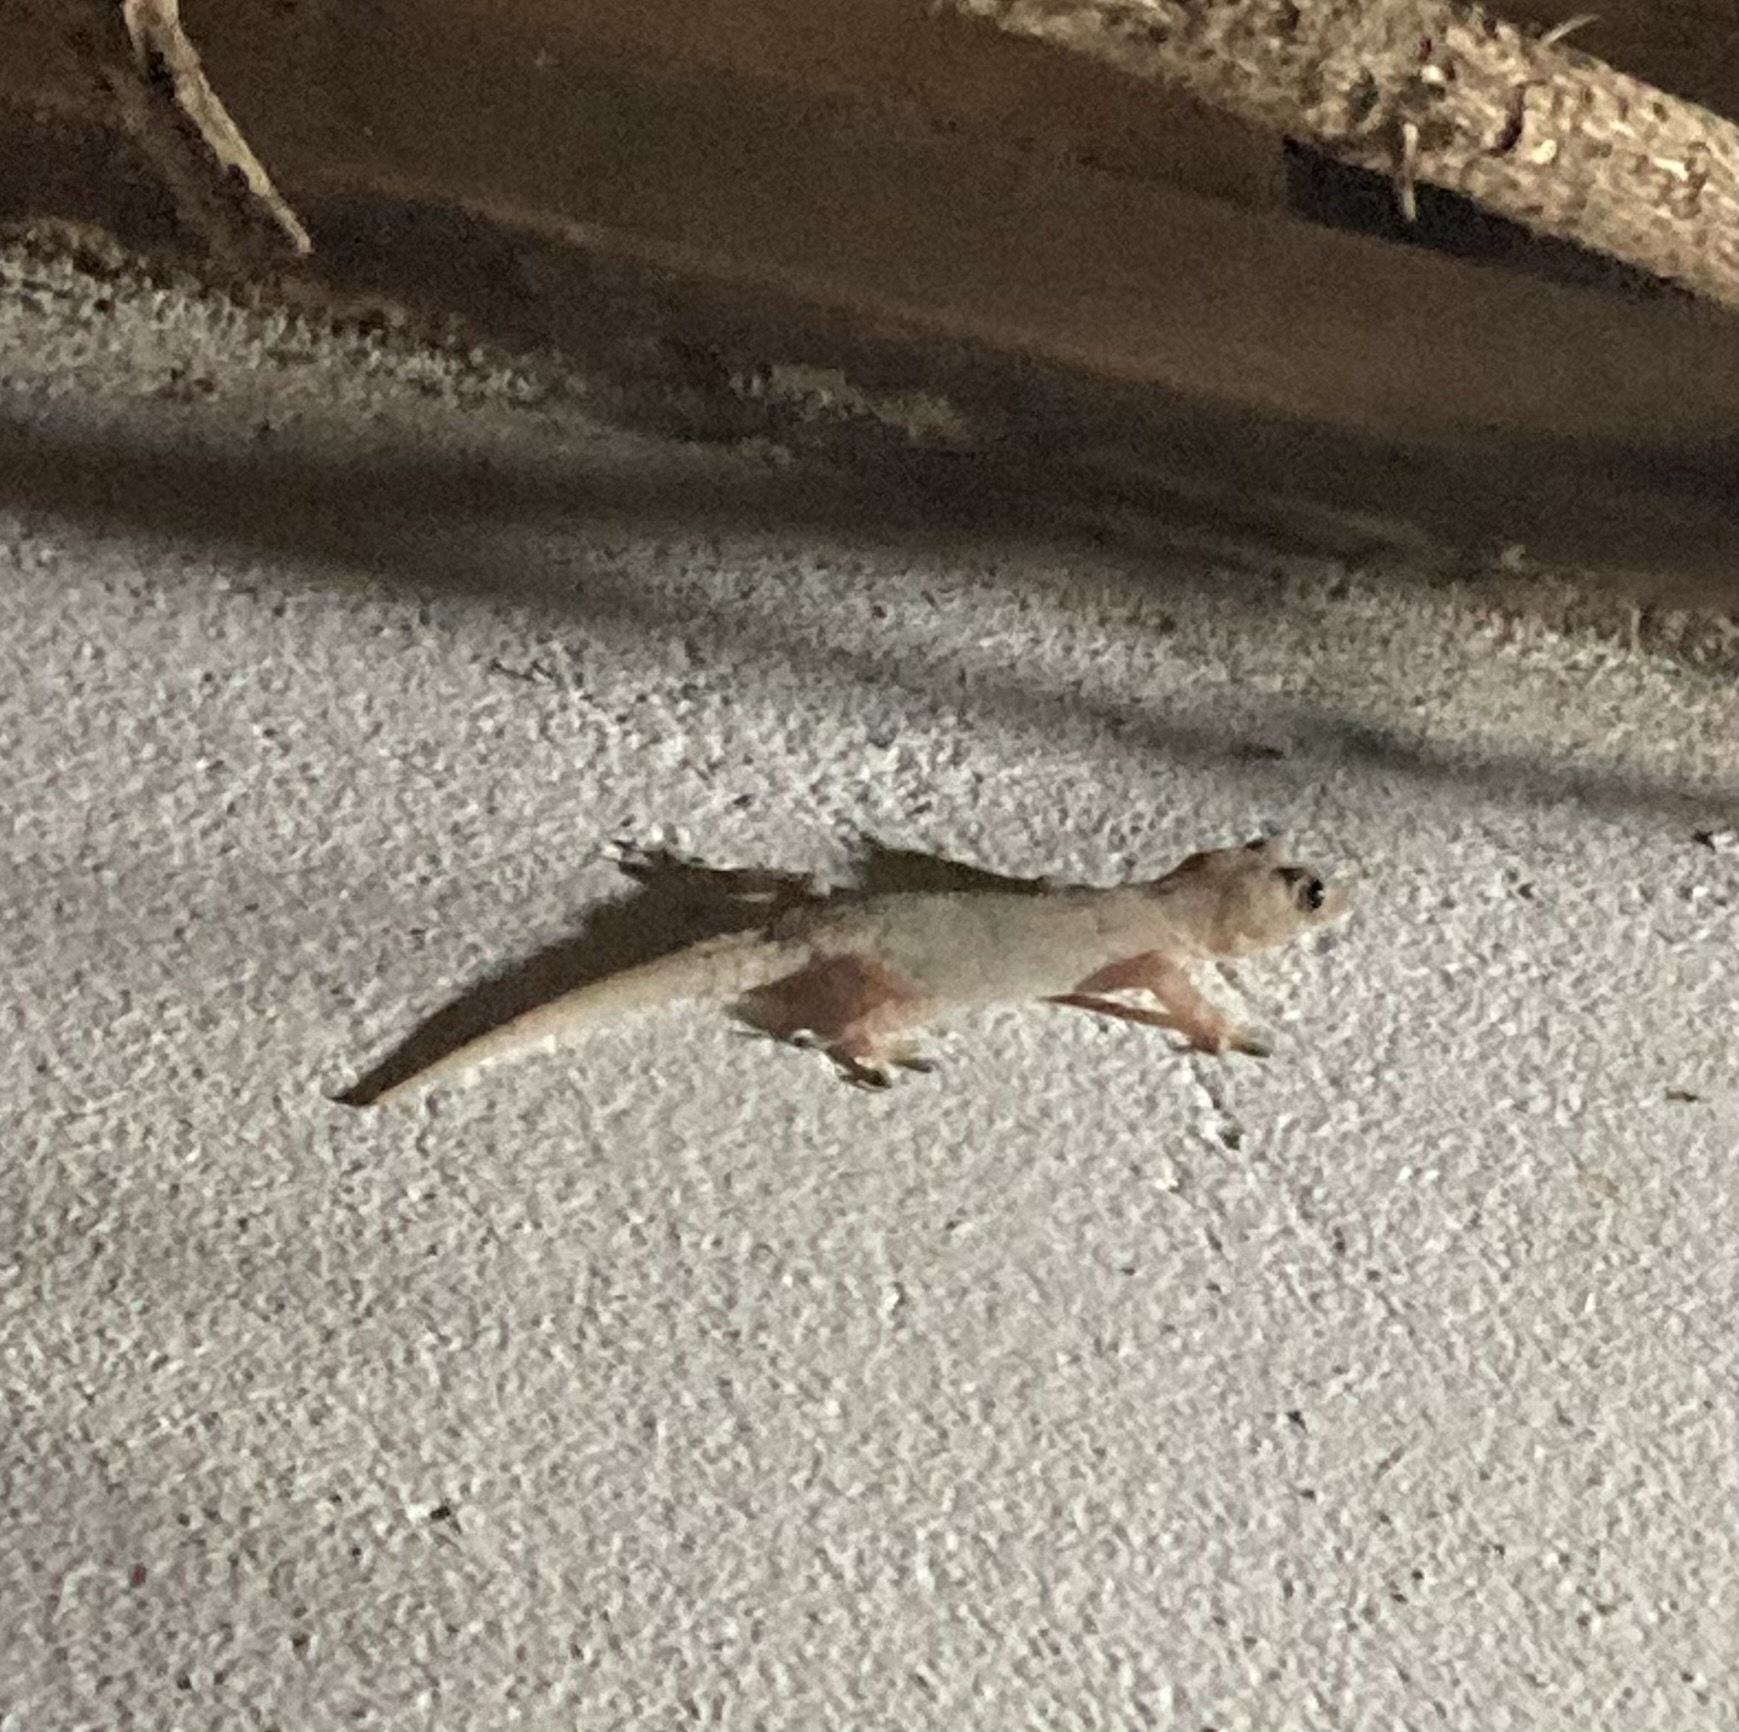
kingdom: Animalia
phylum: Chordata
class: Squamata
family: Gekkonidae
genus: Hemidactylus
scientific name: Hemidactylus mabouia
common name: House gecko
